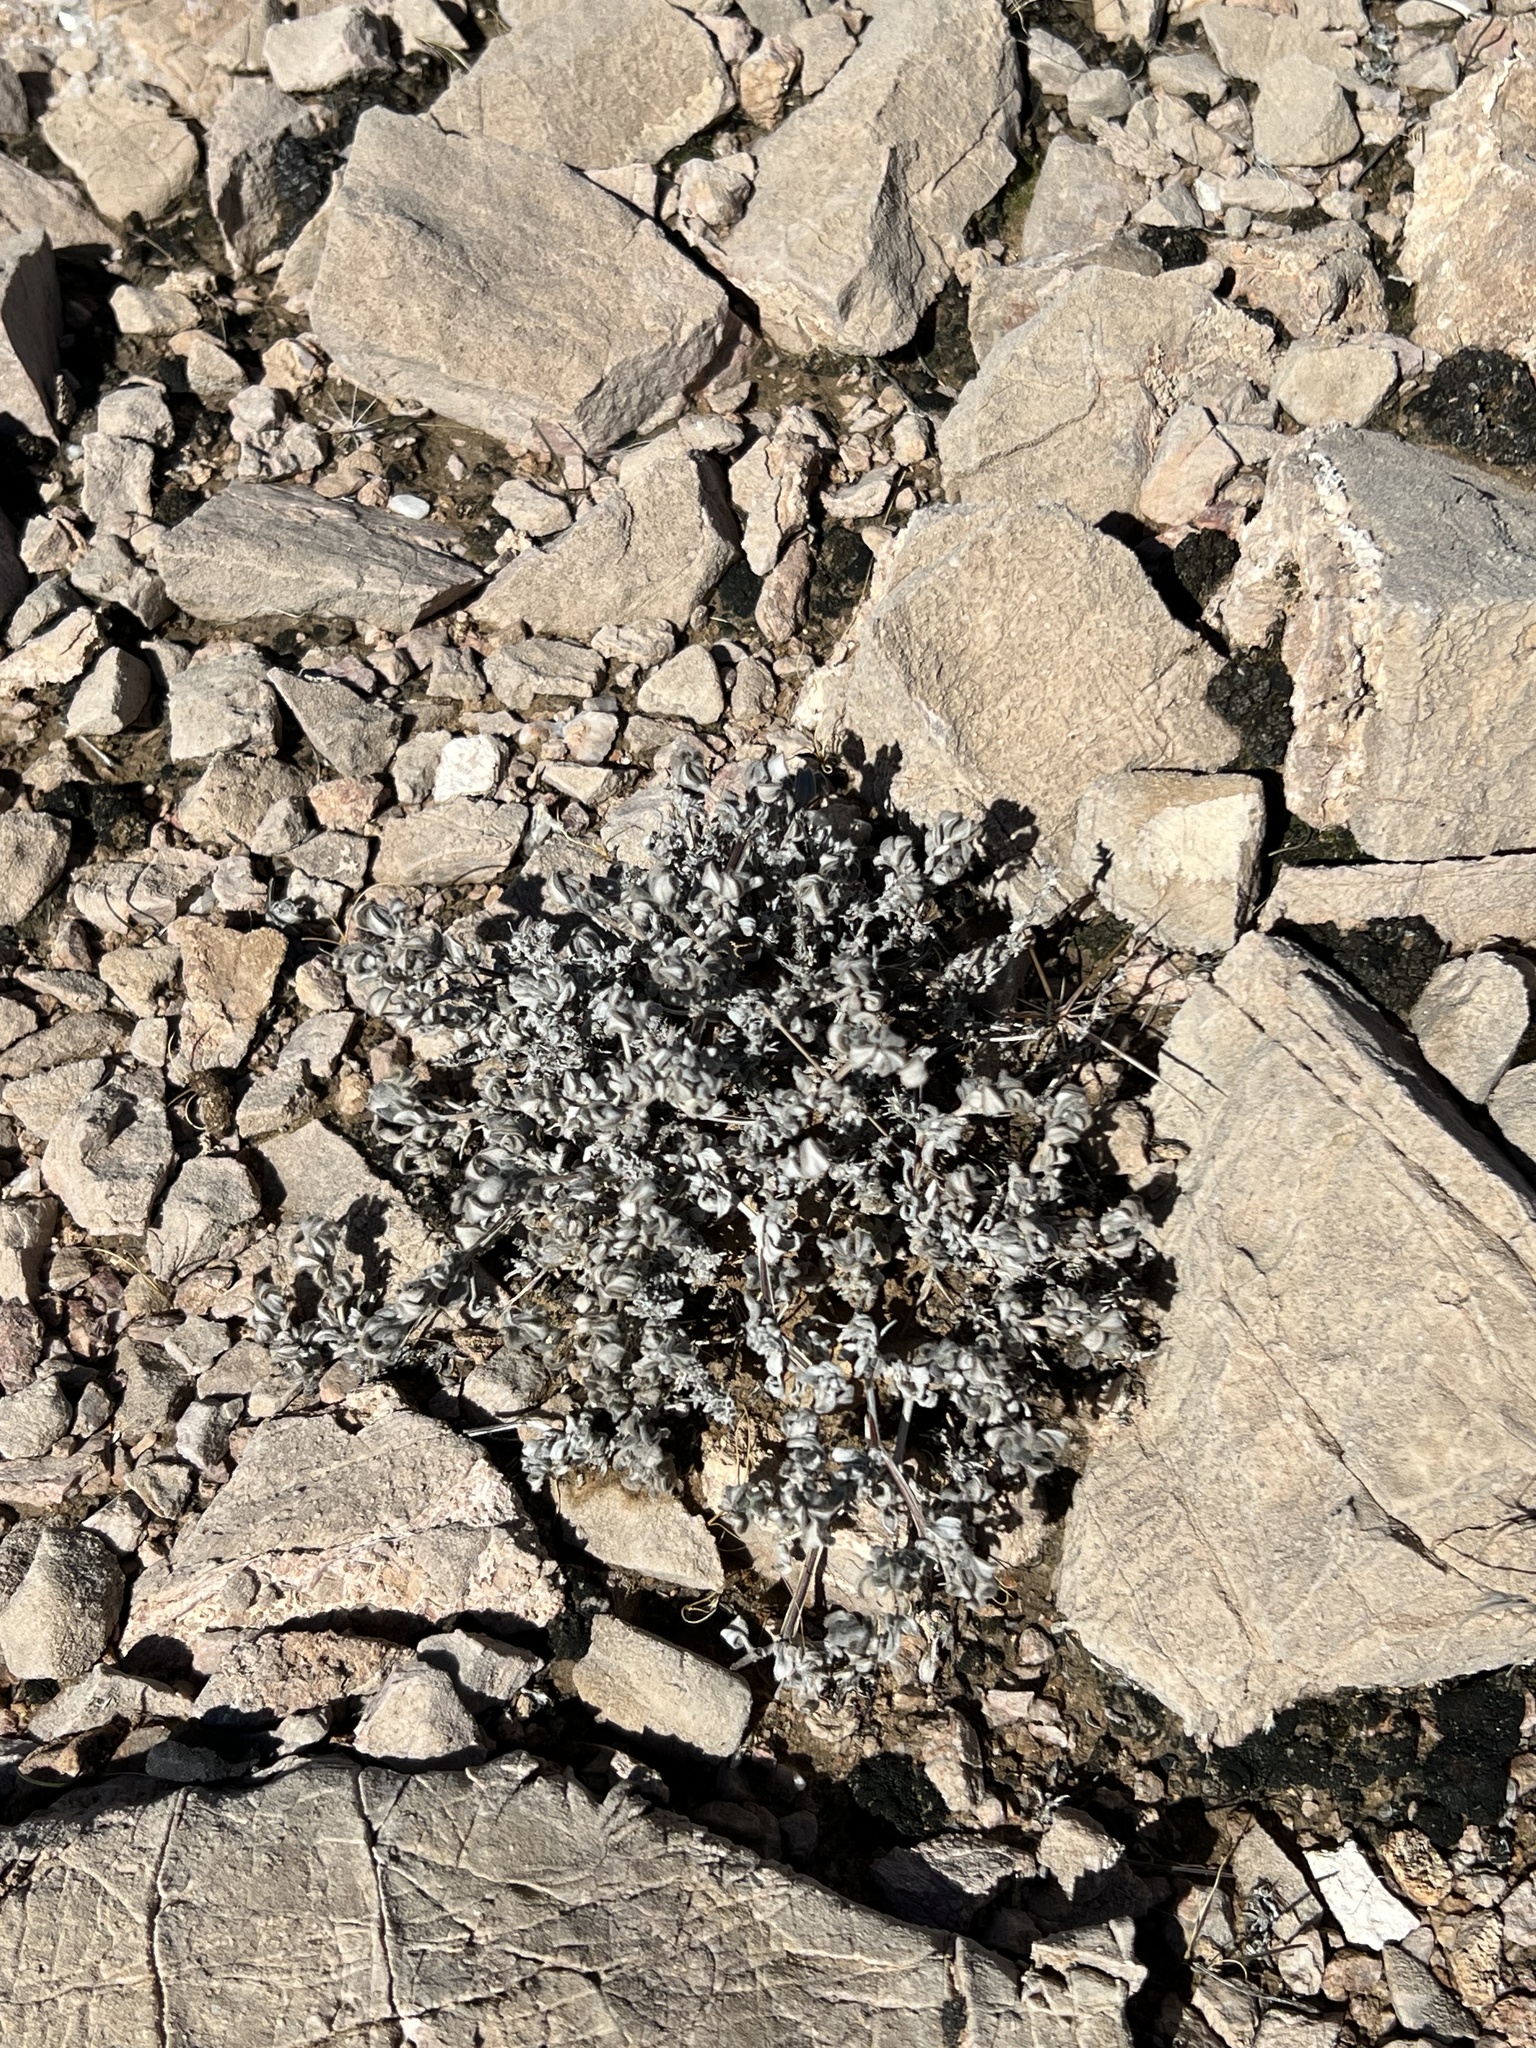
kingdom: Plantae
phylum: Tracheophyta
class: Magnoliopsida
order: Boraginales
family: Ehretiaceae
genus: Tiquilia
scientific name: Tiquilia canescens
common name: Hairy tiquilia
